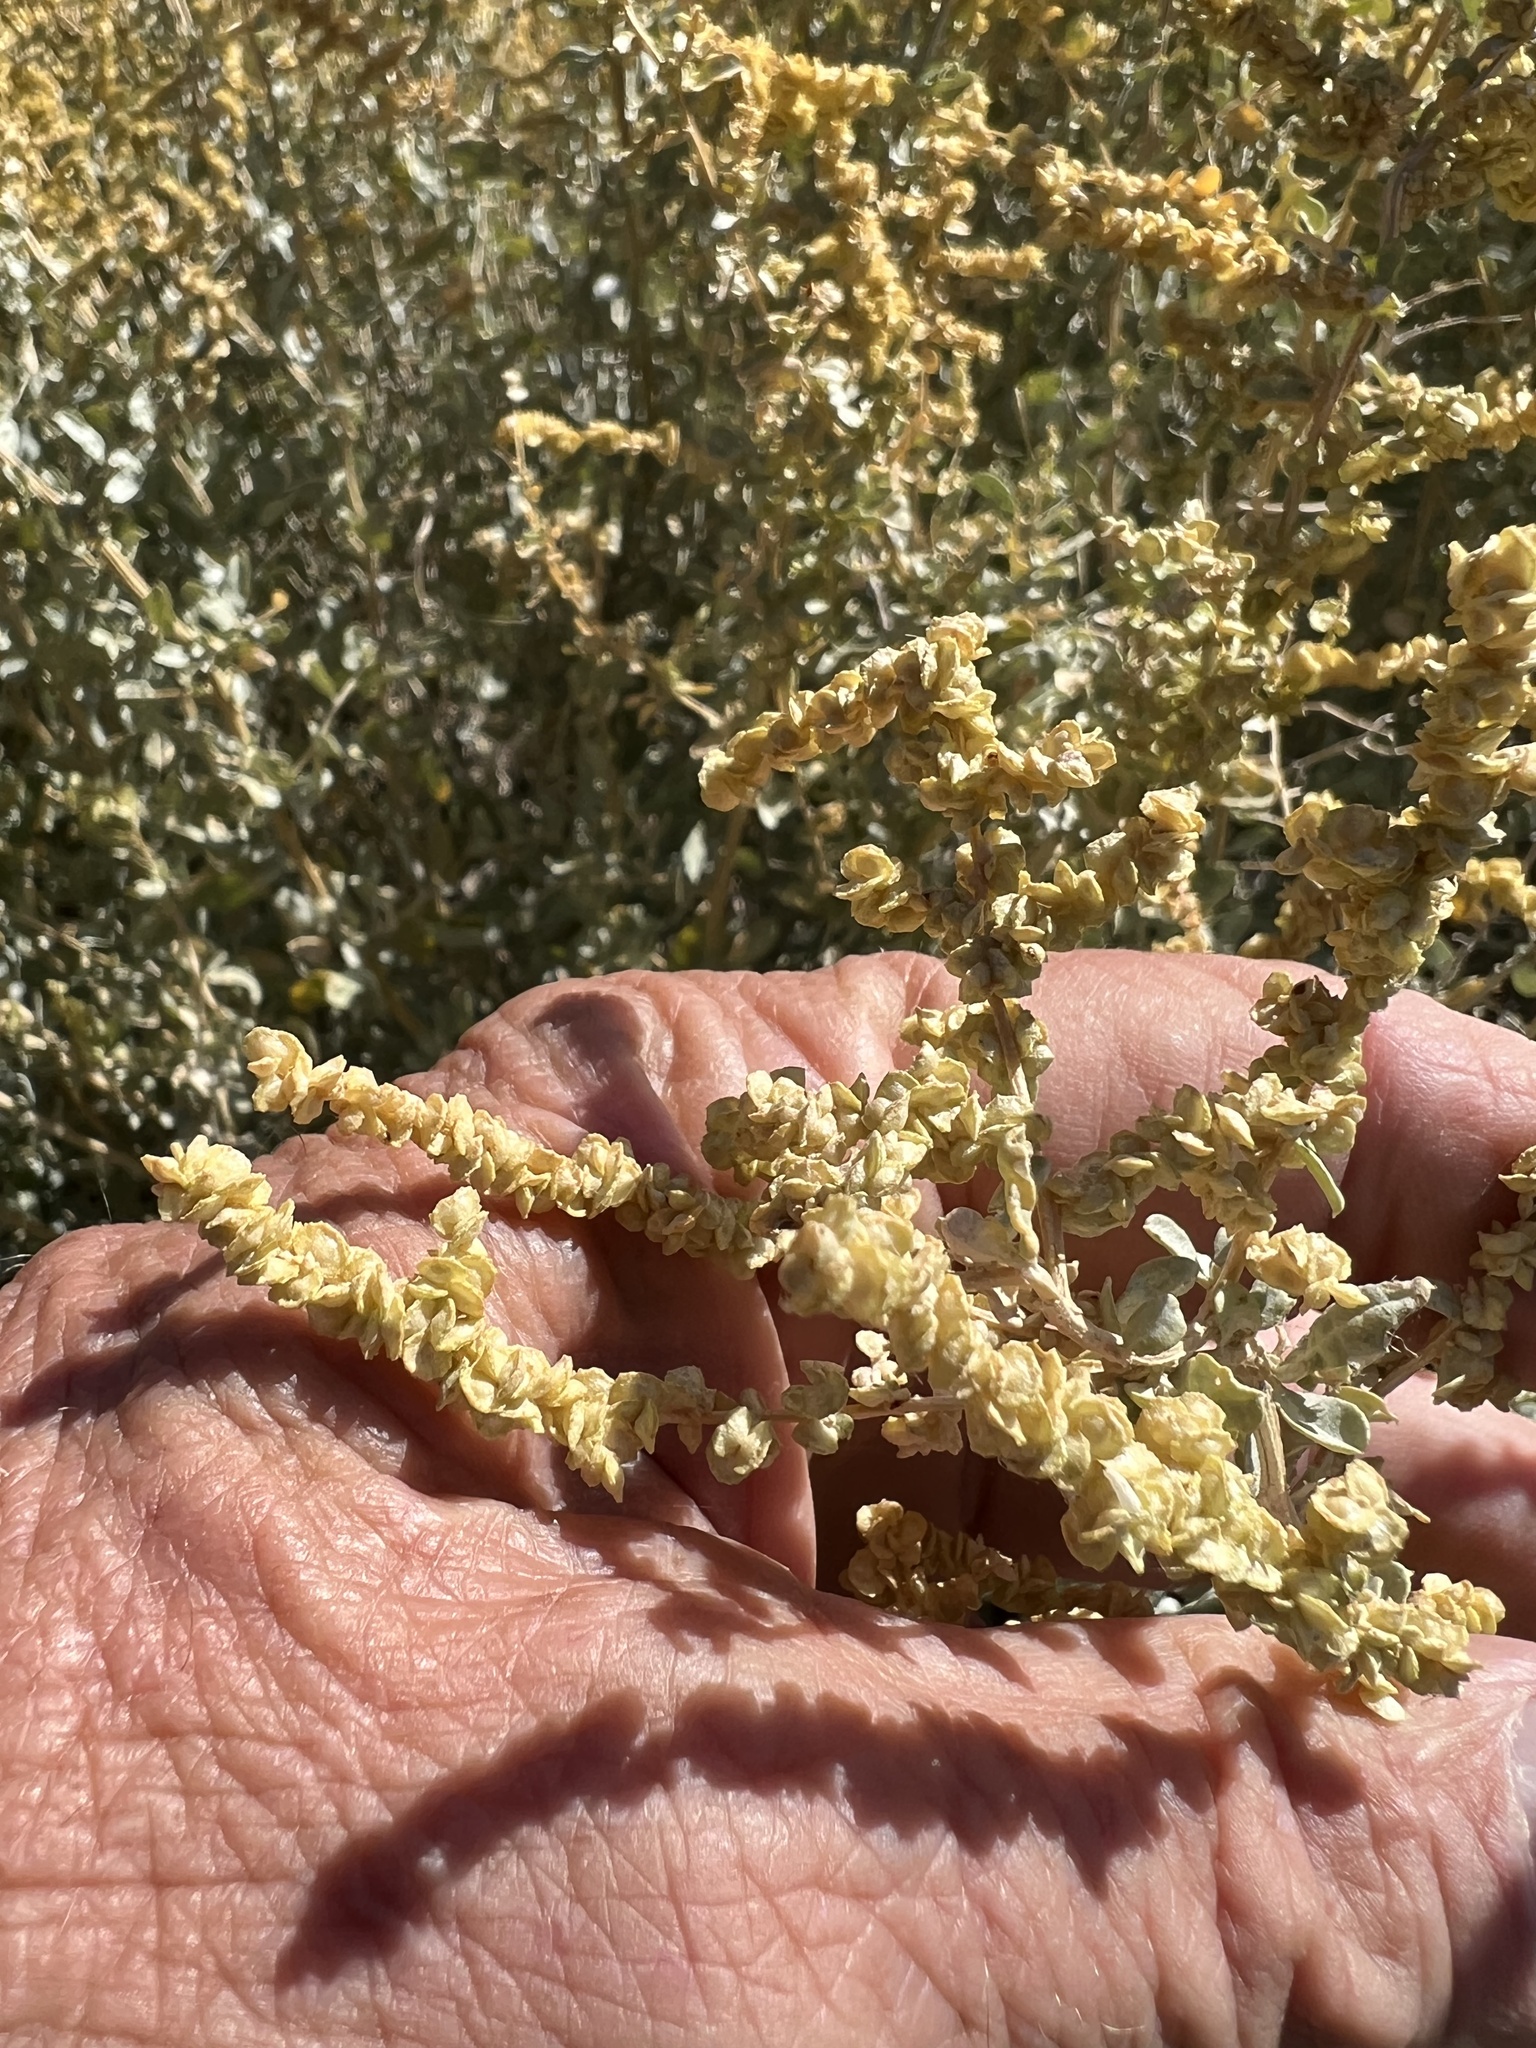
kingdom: Plantae
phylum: Tracheophyta
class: Magnoliopsida
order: Caryophyllales
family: Amaranthaceae
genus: Atriplex
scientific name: Atriplex torreyi
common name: Torrey's saltbush
